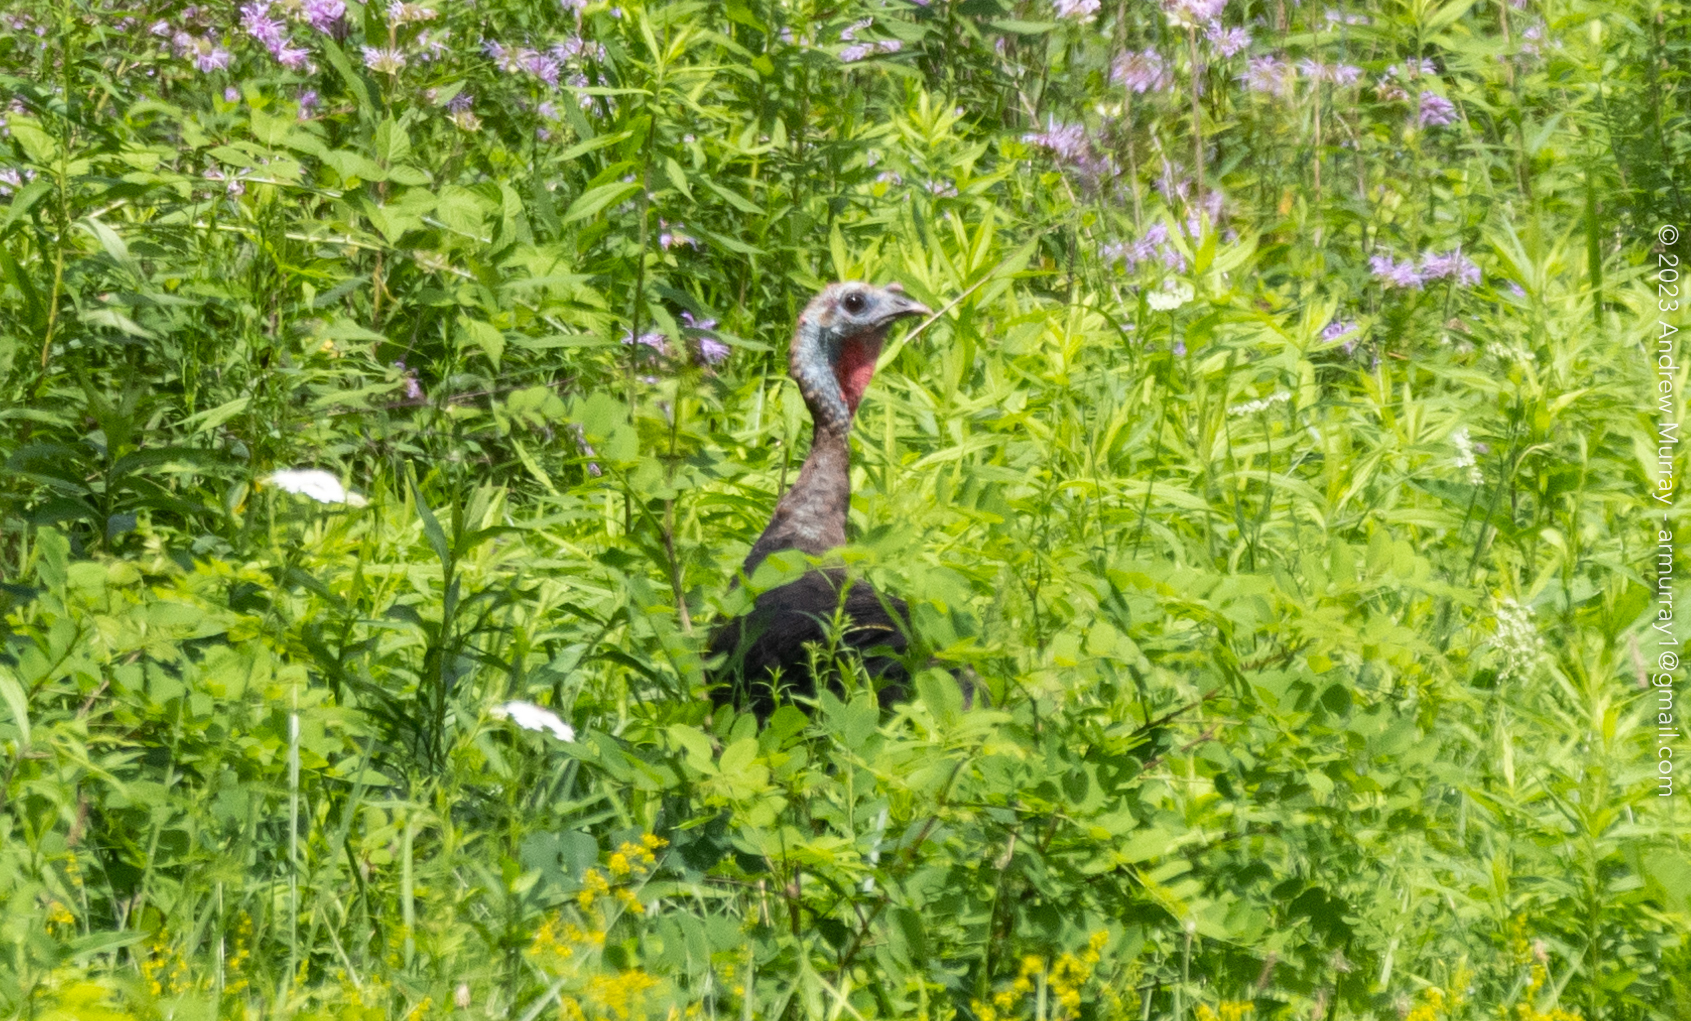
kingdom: Animalia
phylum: Chordata
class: Aves
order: Galliformes
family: Phasianidae
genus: Meleagris
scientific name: Meleagris gallopavo
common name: Wild turkey
